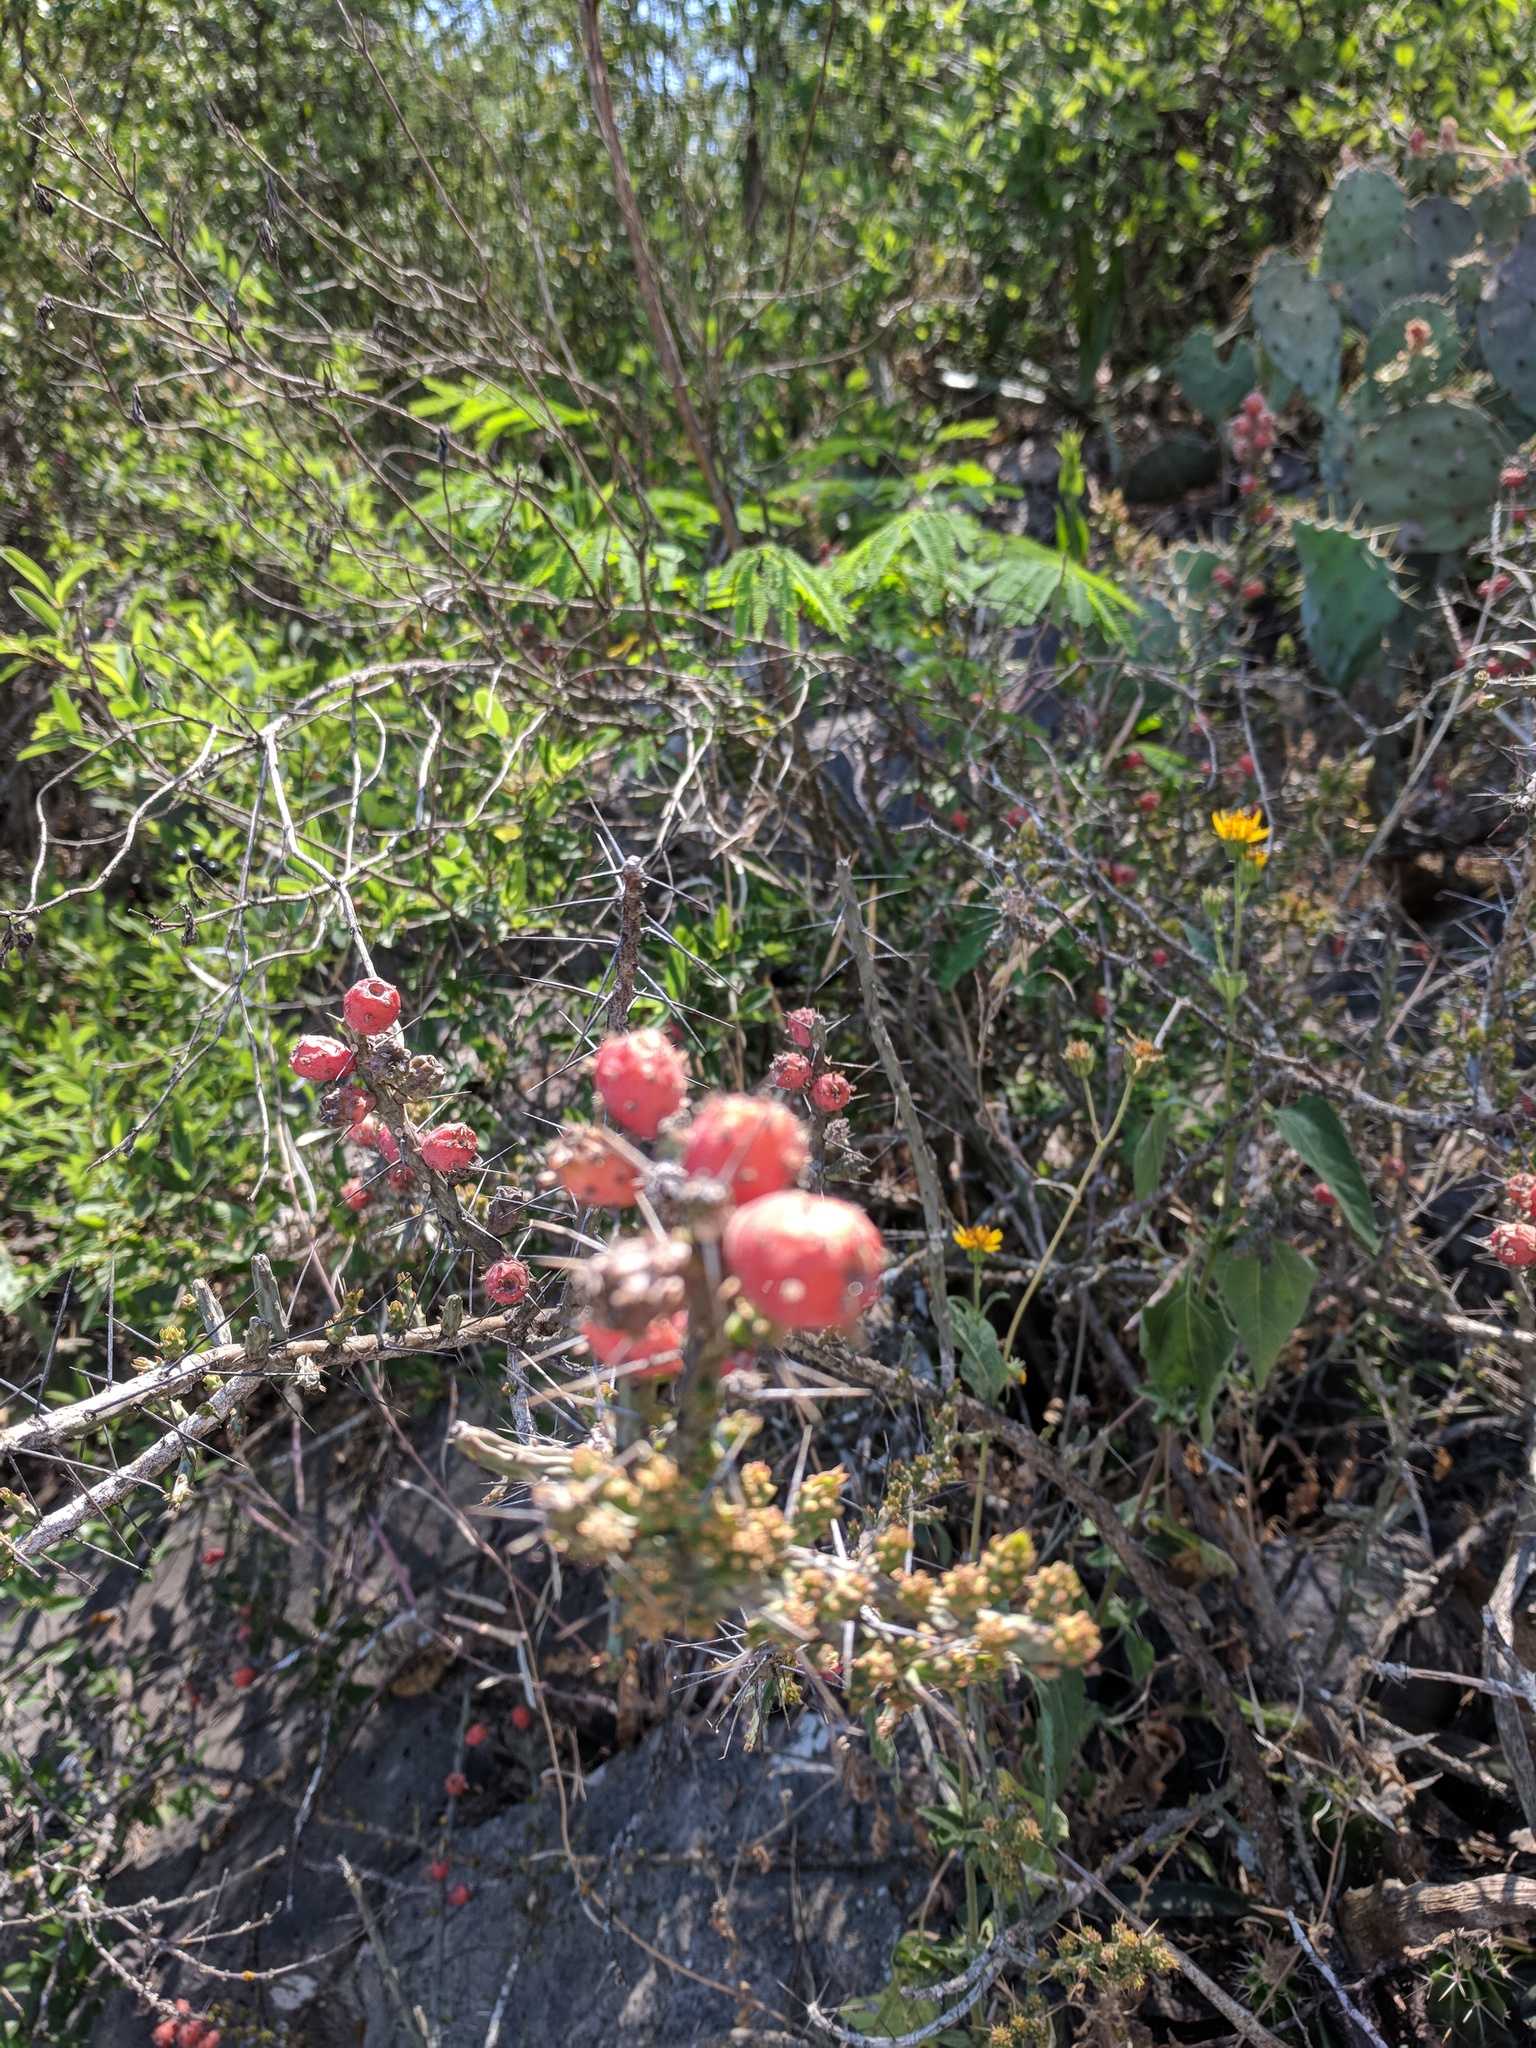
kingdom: Plantae
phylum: Tracheophyta
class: Magnoliopsida
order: Caryophyllales
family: Cactaceae
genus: Cylindropuntia
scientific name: Cylindropuntia leptocaulis
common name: Christmas cactus
